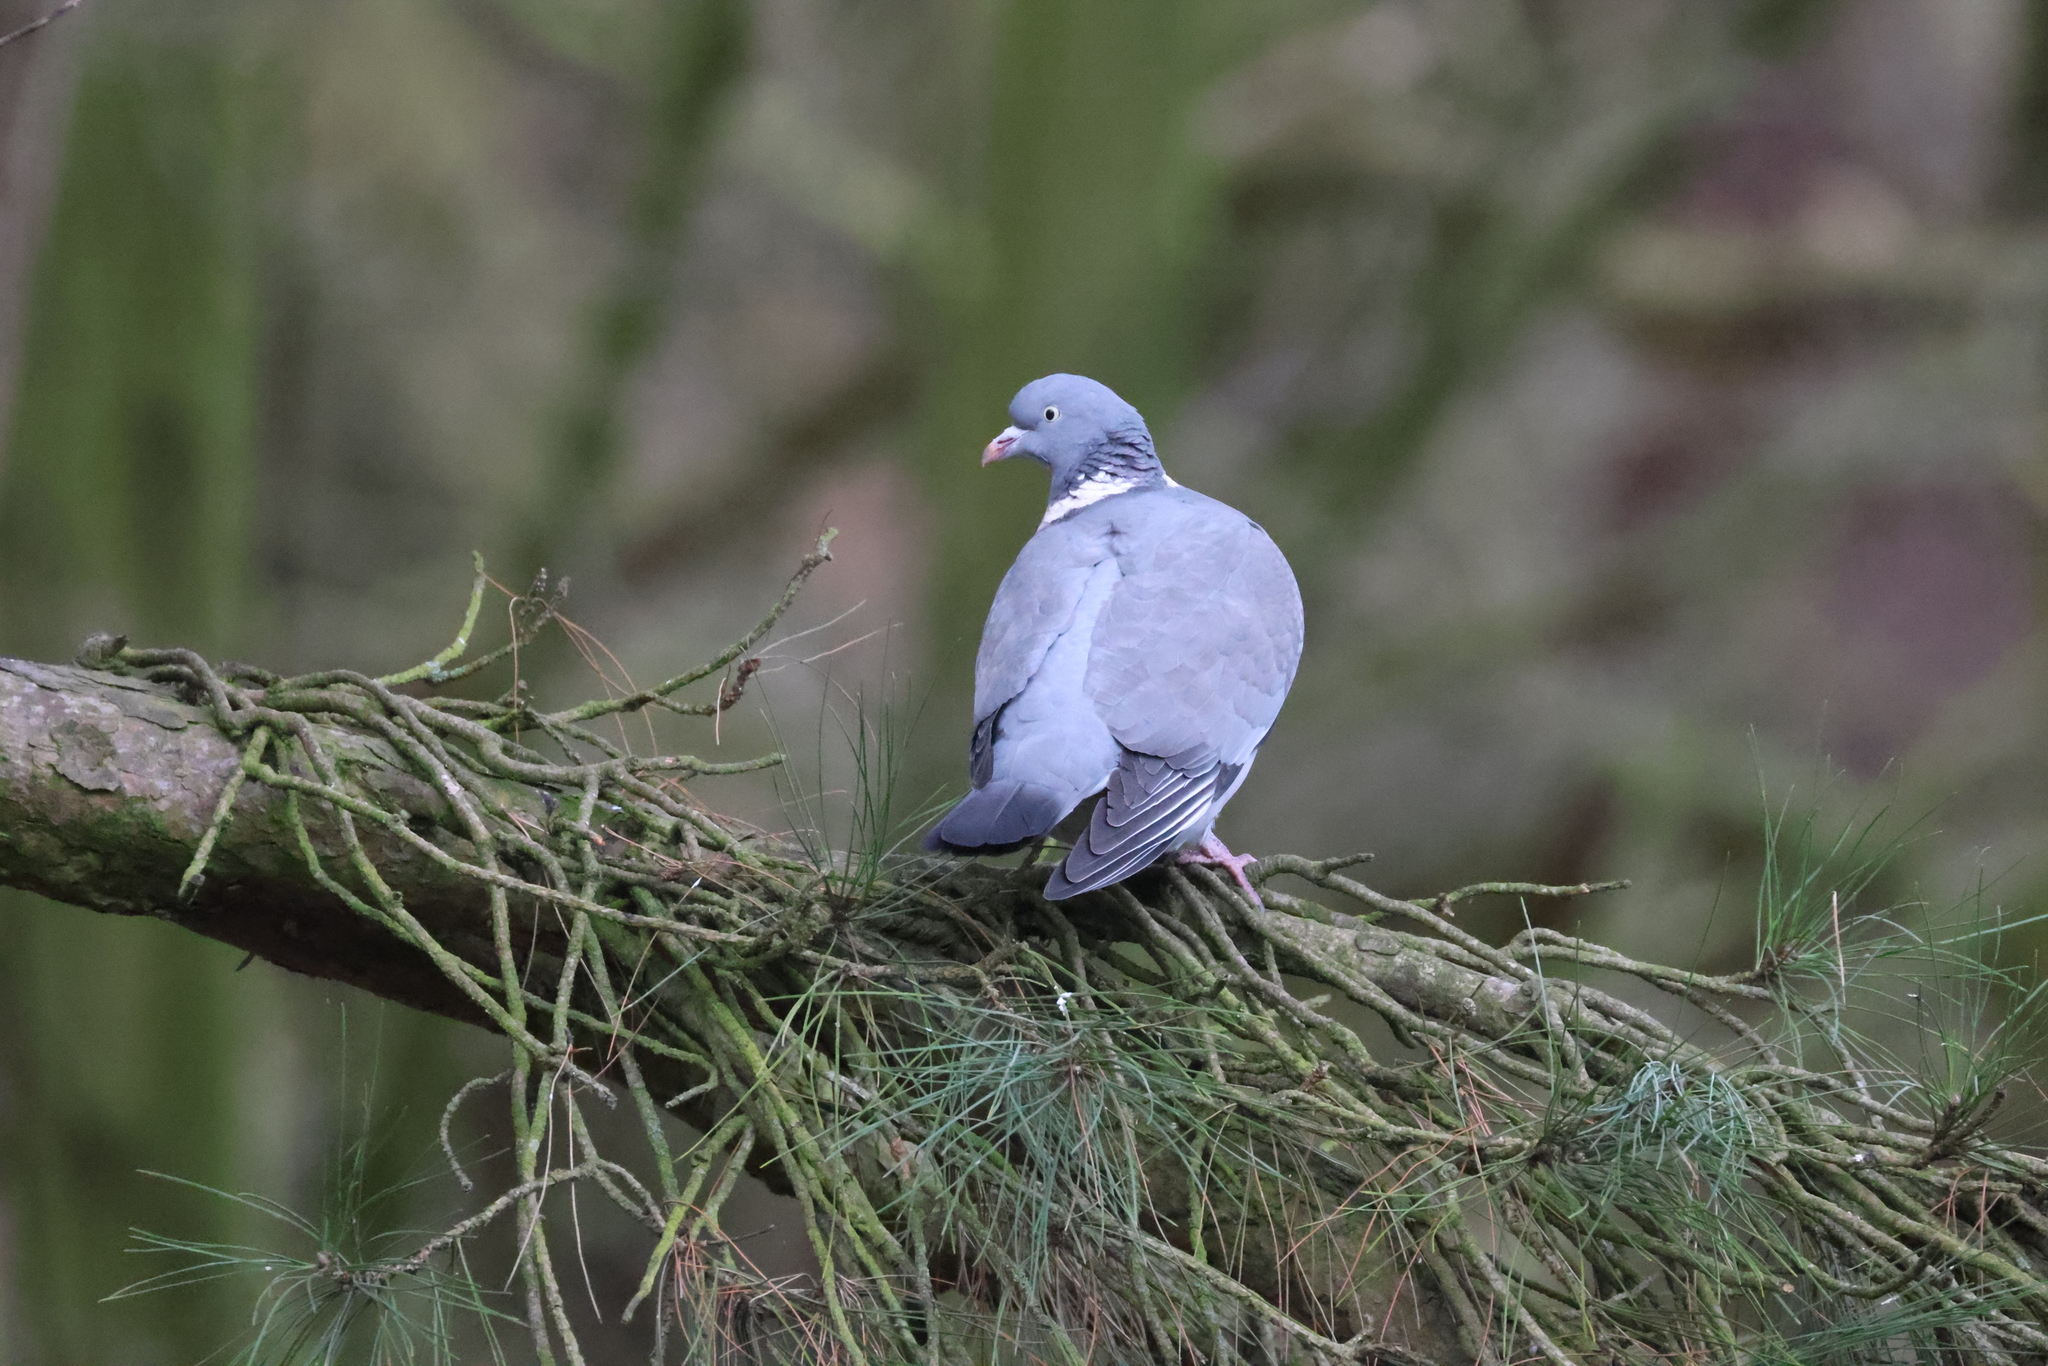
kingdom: Animalia
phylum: Chordata
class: Aves
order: Columbiformes
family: Columbidae
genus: Columba
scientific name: Columba palumbus
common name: Common wood pigeon
